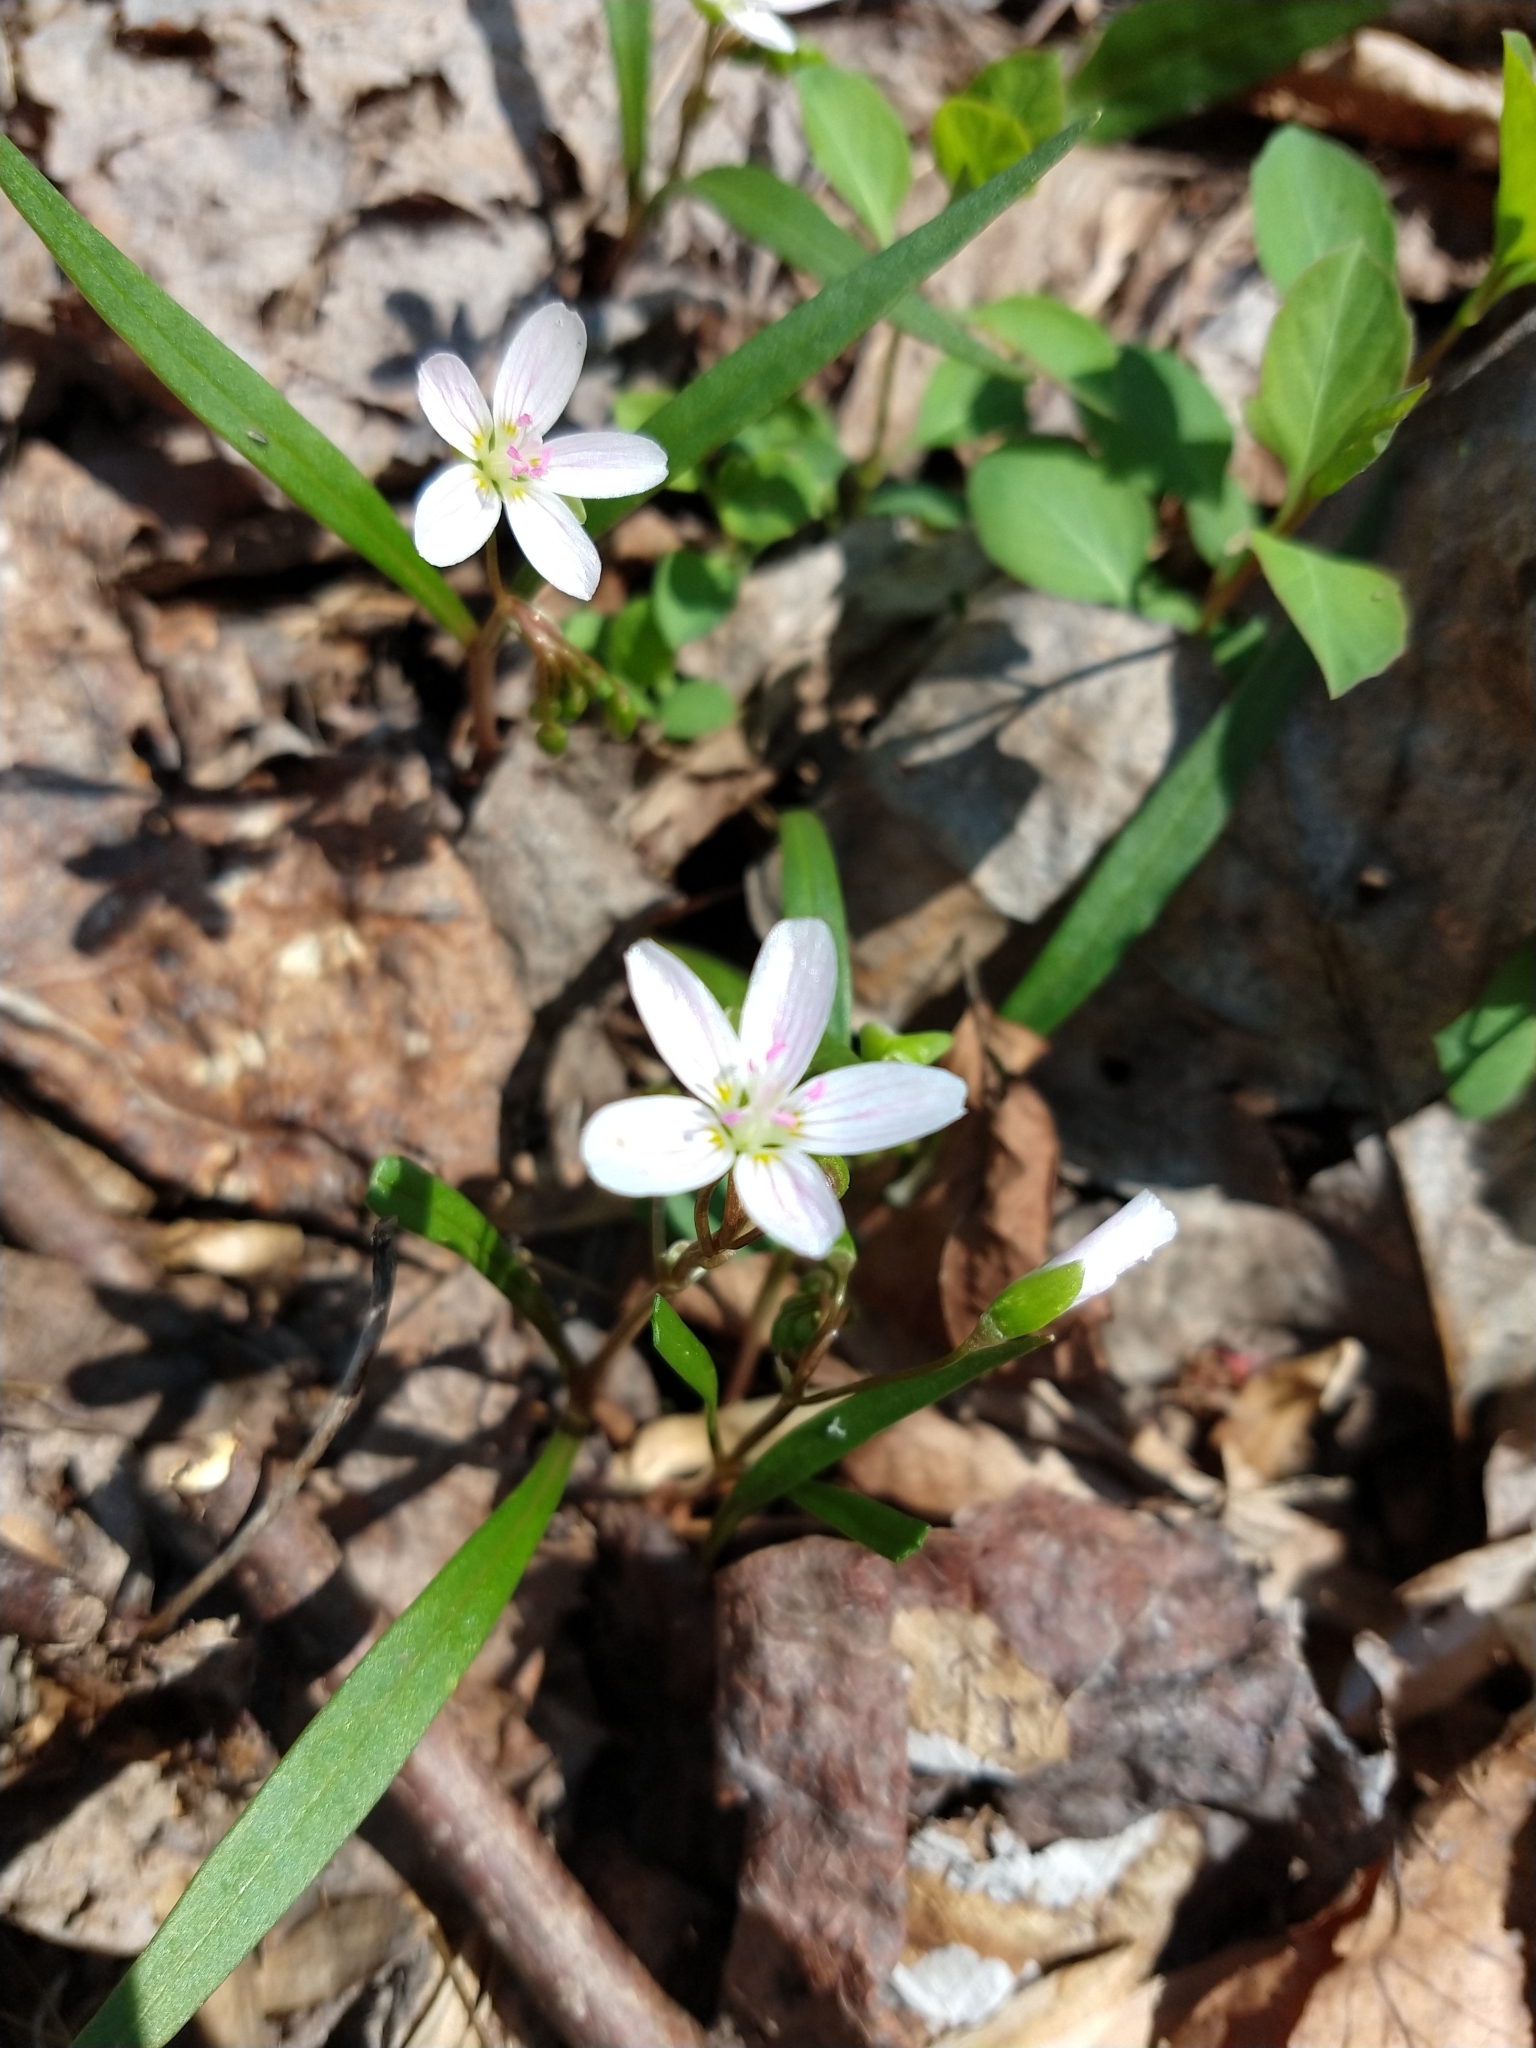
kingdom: Plantae
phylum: Tracheophyta
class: Magnoliopsida
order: Caryophyllales
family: Montiaceae
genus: Claytonia
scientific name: Claytonia virginica
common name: Virginia springbeauty
